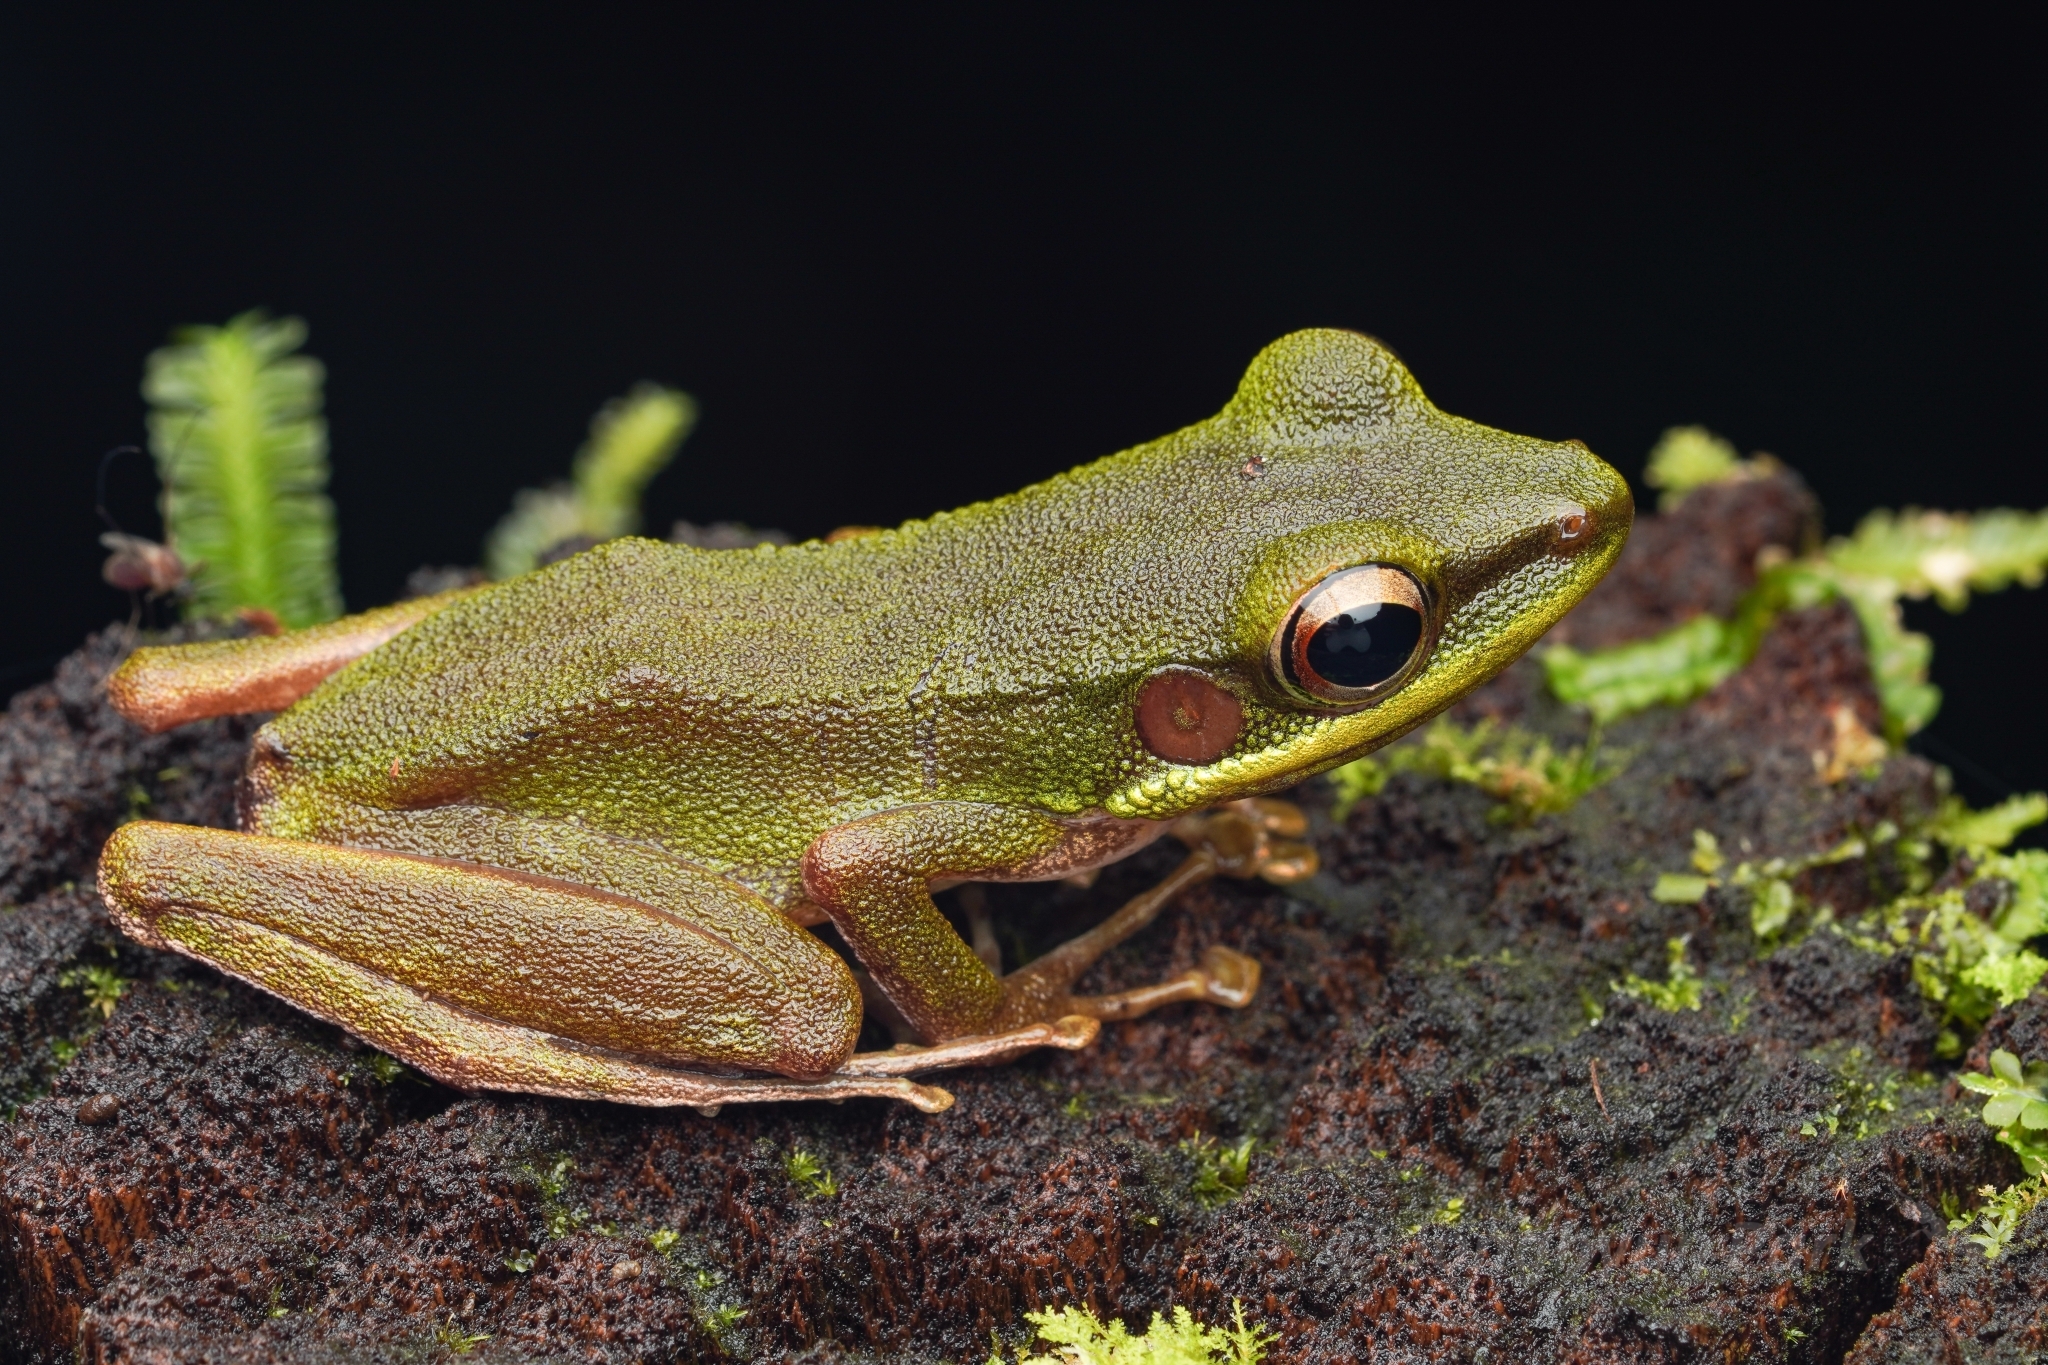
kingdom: Animalia
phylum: Chordata
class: Amphibia
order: Anura
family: Ranidae
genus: Chalcorana
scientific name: Chalcorana raniceps
